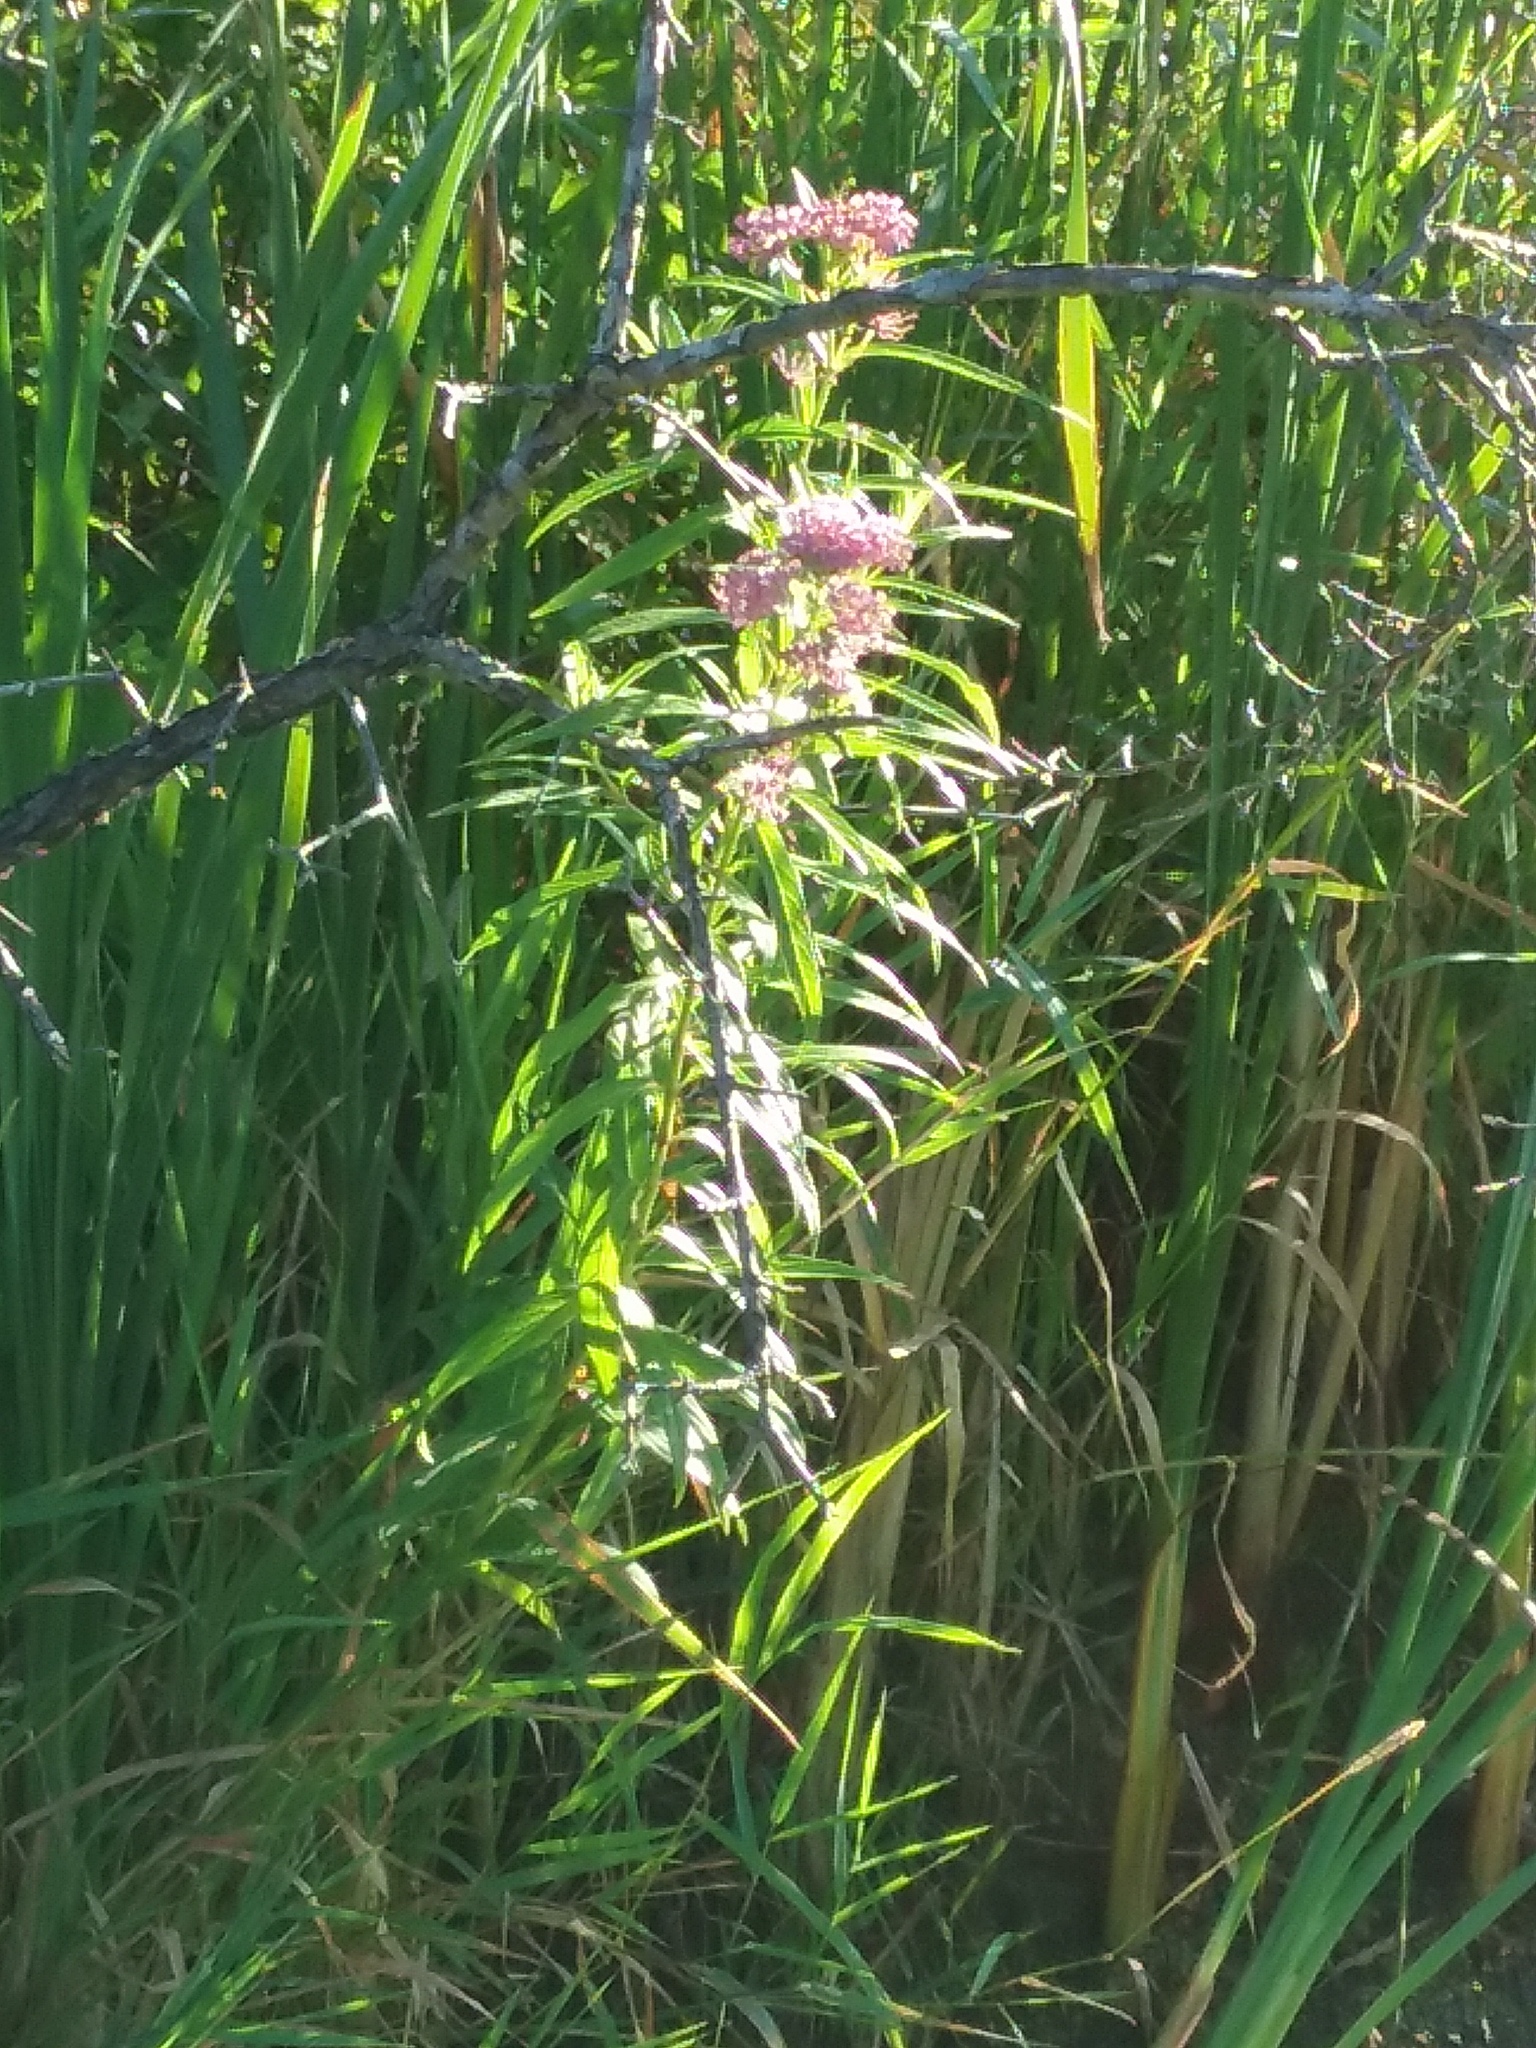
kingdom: Plantae
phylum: Tracheophyta
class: Magnoliopsida
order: Gentianales
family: Apocynaceae
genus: Asclepias
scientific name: Asclepias incarnata
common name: Swamp milkweed
